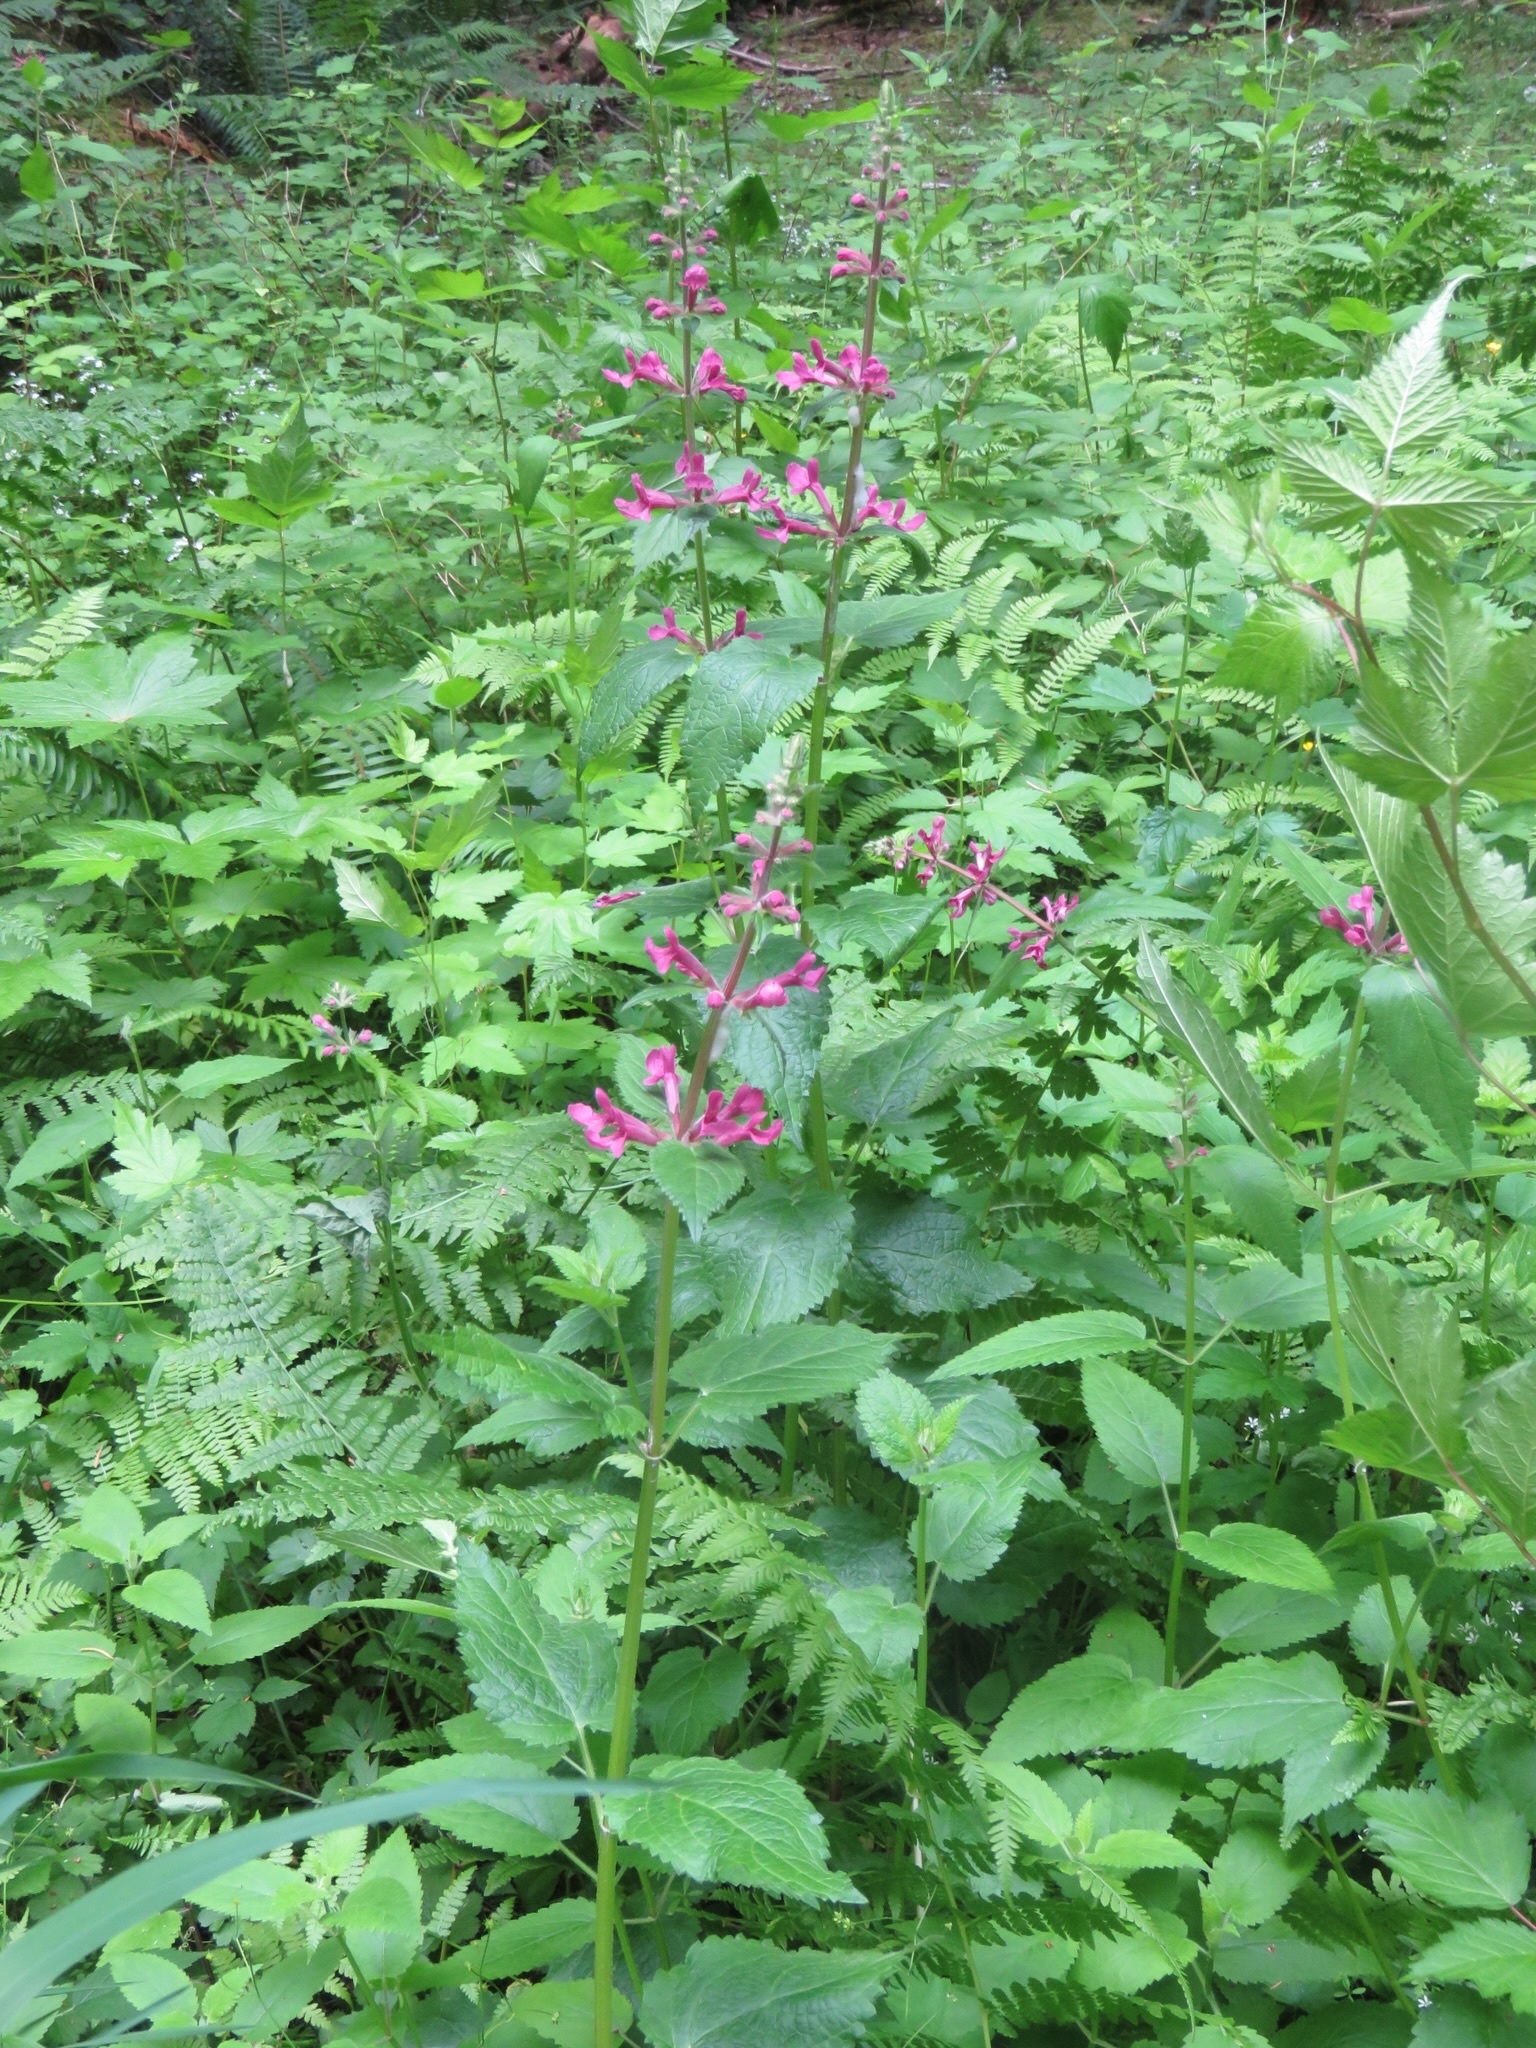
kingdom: Plantae
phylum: Tracheophyta
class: Magnoliopsida
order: Lamiales
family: Lamiaceae
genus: Stachys
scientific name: Stachys chamissonis
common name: Coastal hedge-nettle
